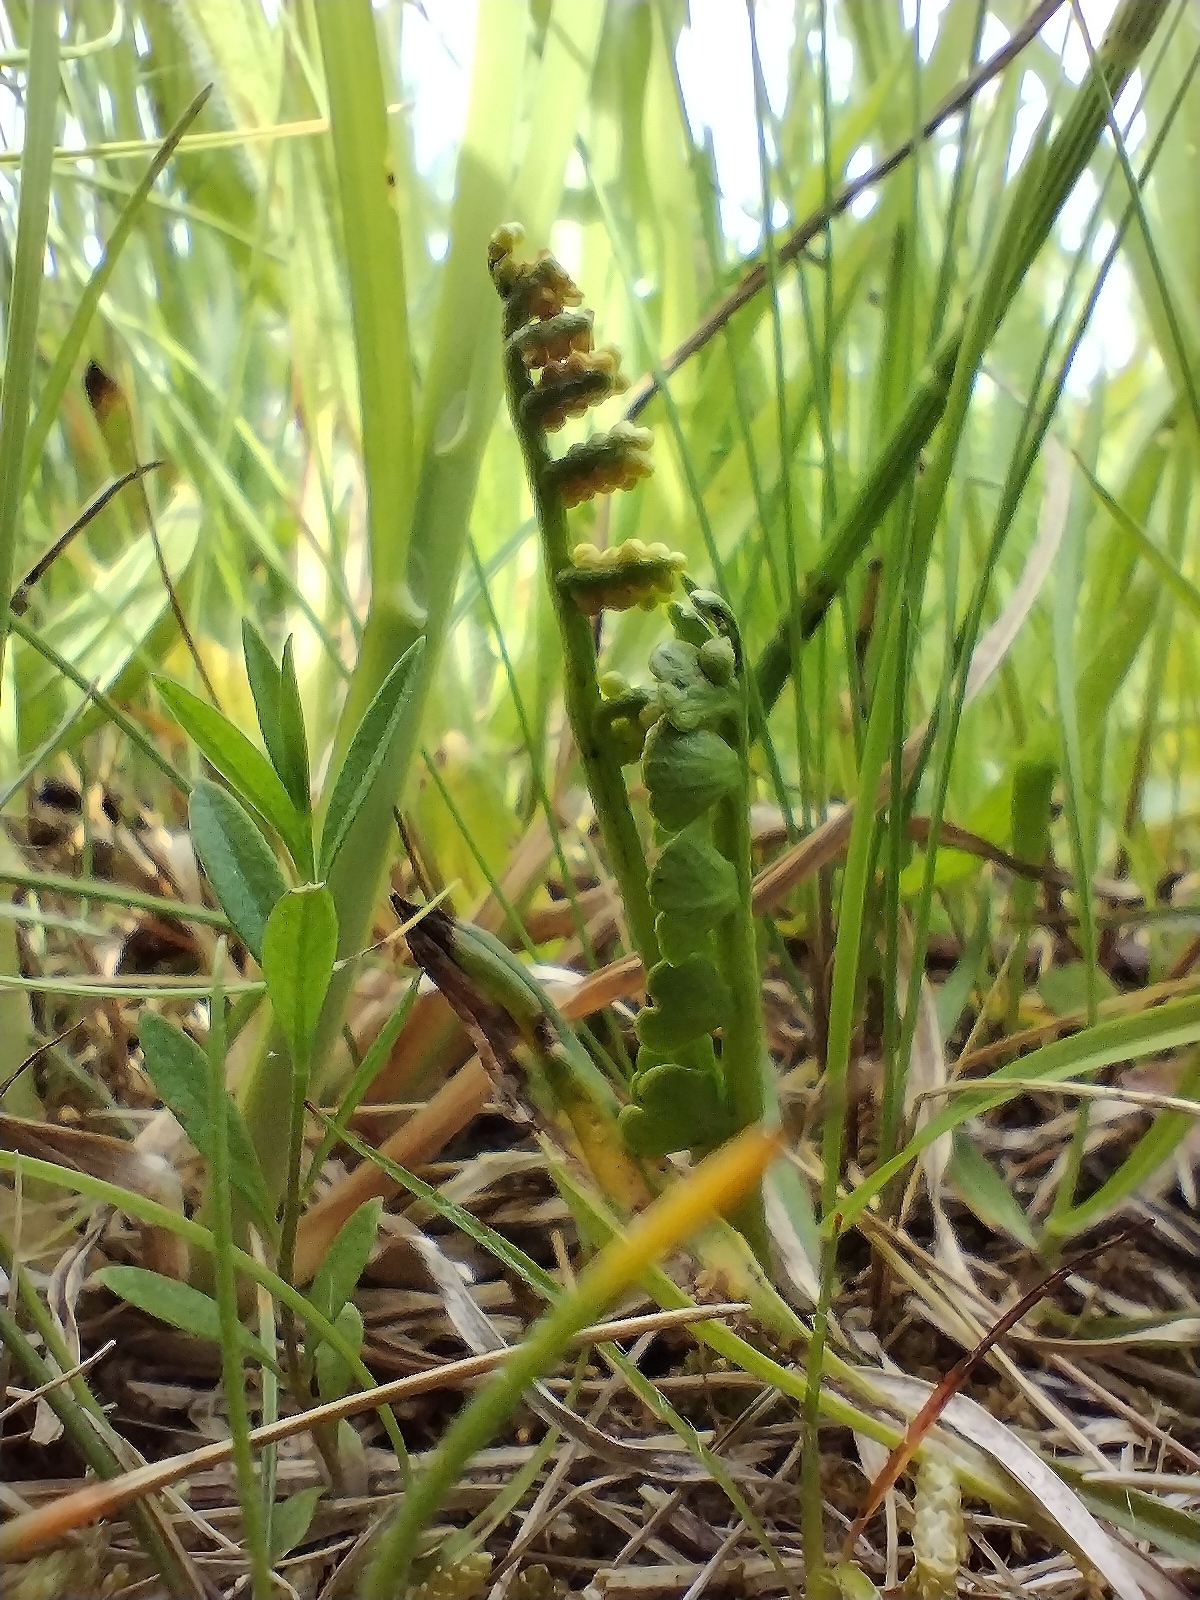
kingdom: Plantae
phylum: Tracheophyta
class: Polypodiopsida
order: Ophioglossales
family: Ophioglossaceae
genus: Botrychium
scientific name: Botrychium lunaria
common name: Moonwort
